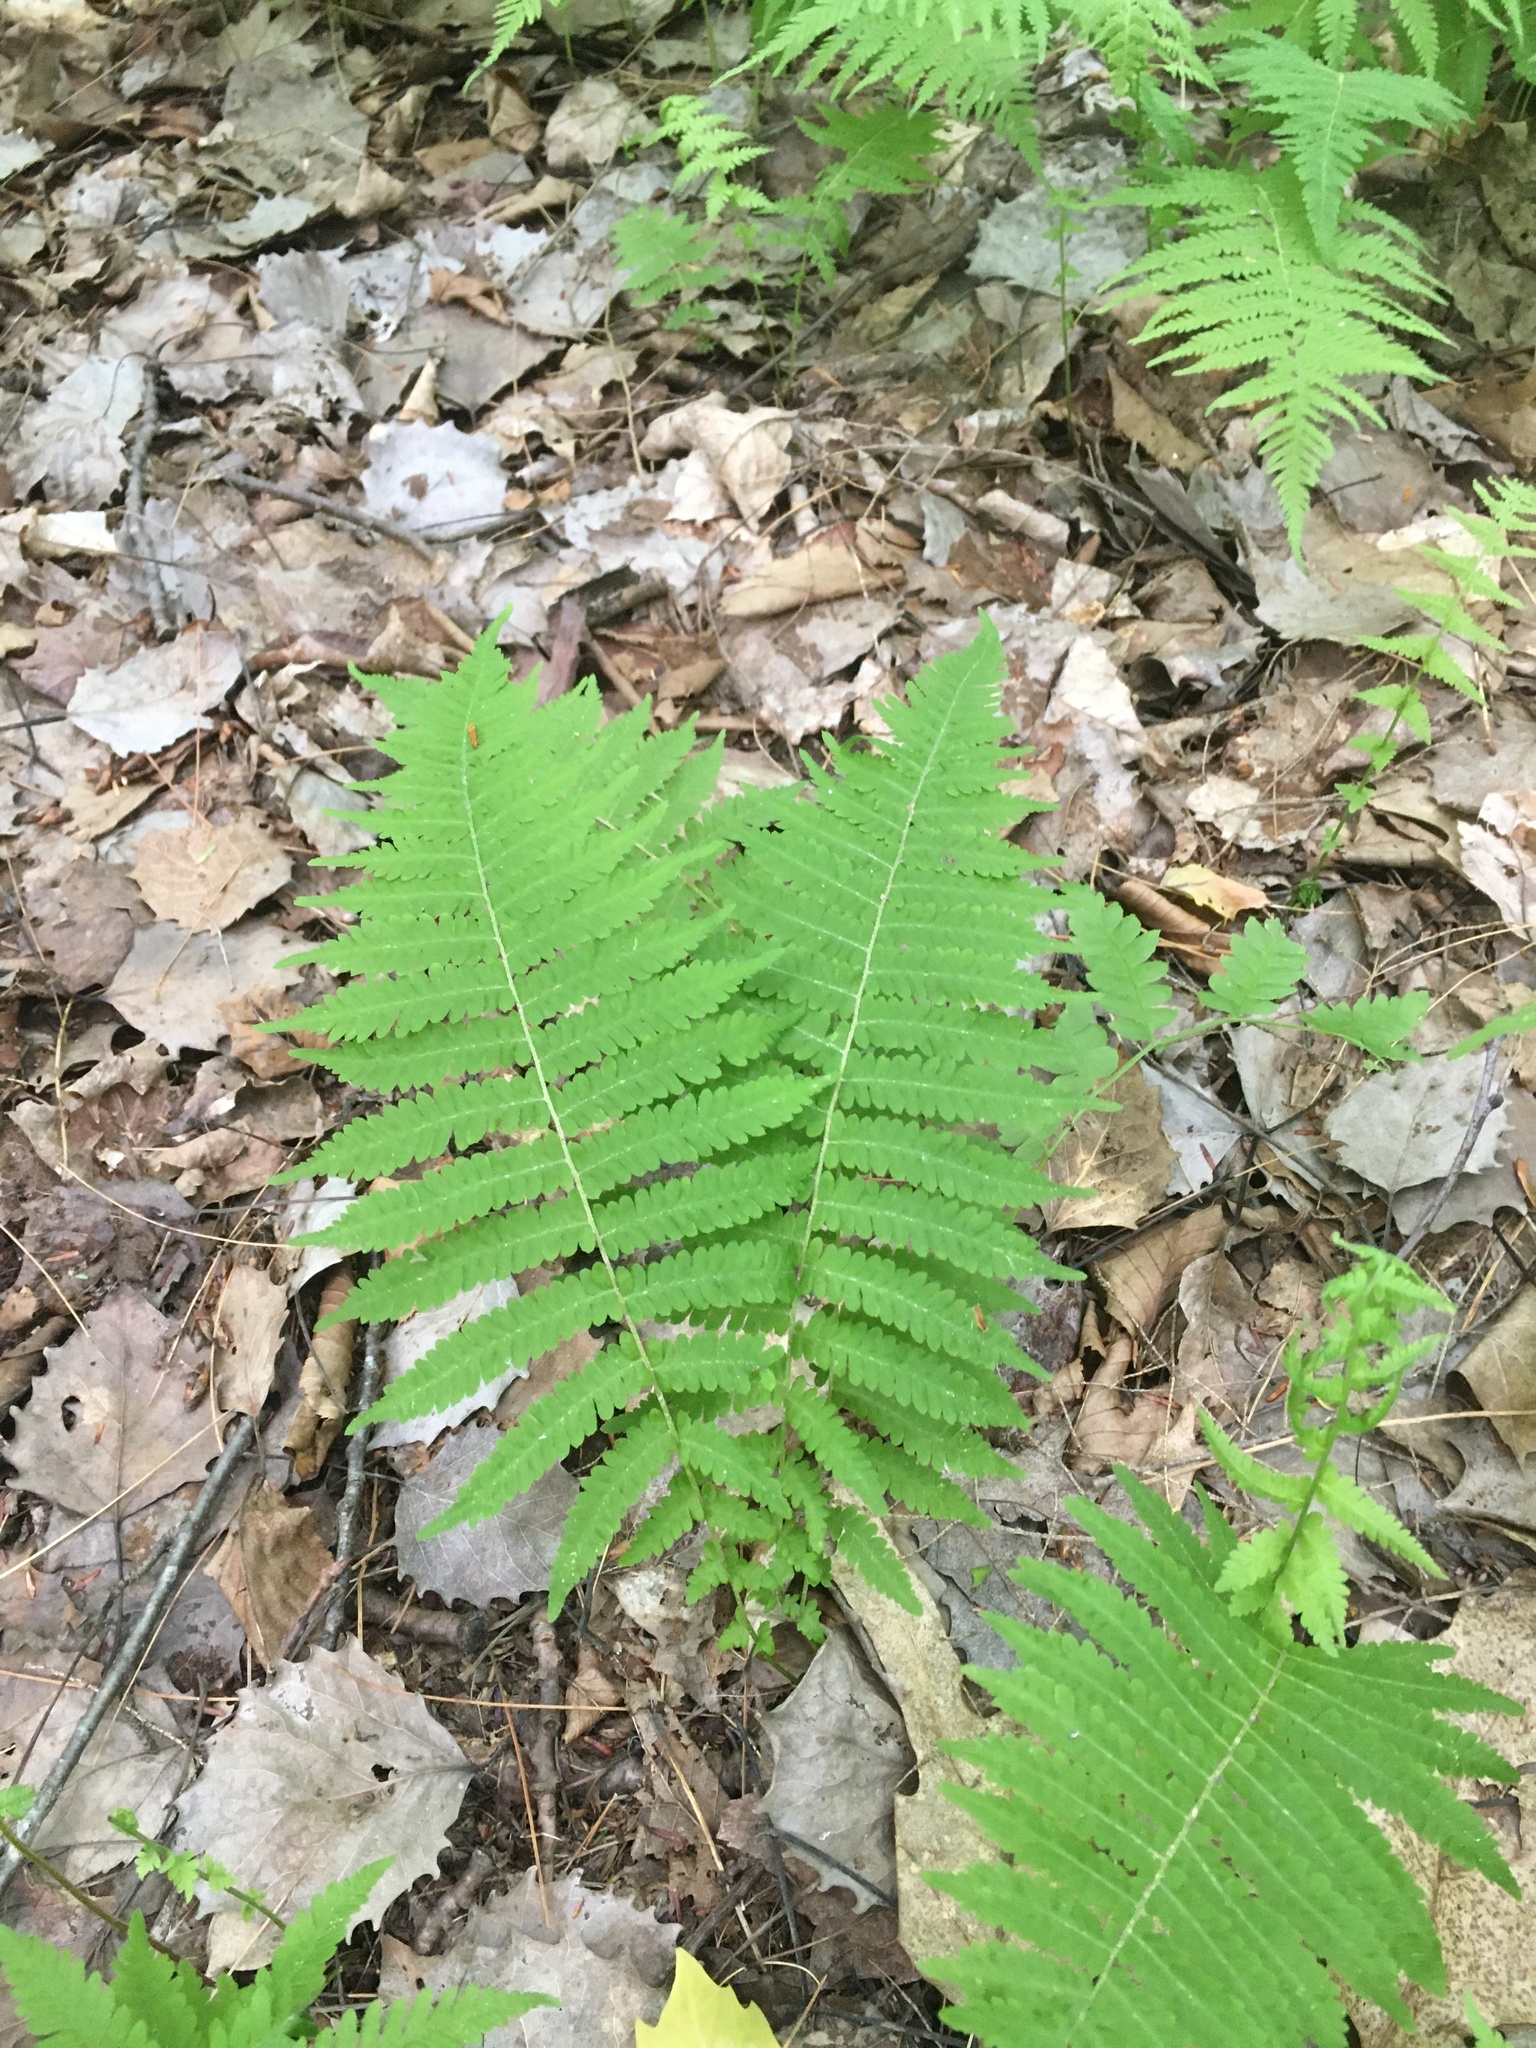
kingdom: Plantae
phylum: Tracheophyta
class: Polypodiopsida
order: Polypodiales
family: Thelypteridaceae
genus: Amauropelta
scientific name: Amauropelta noveboracensis
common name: New york fern
